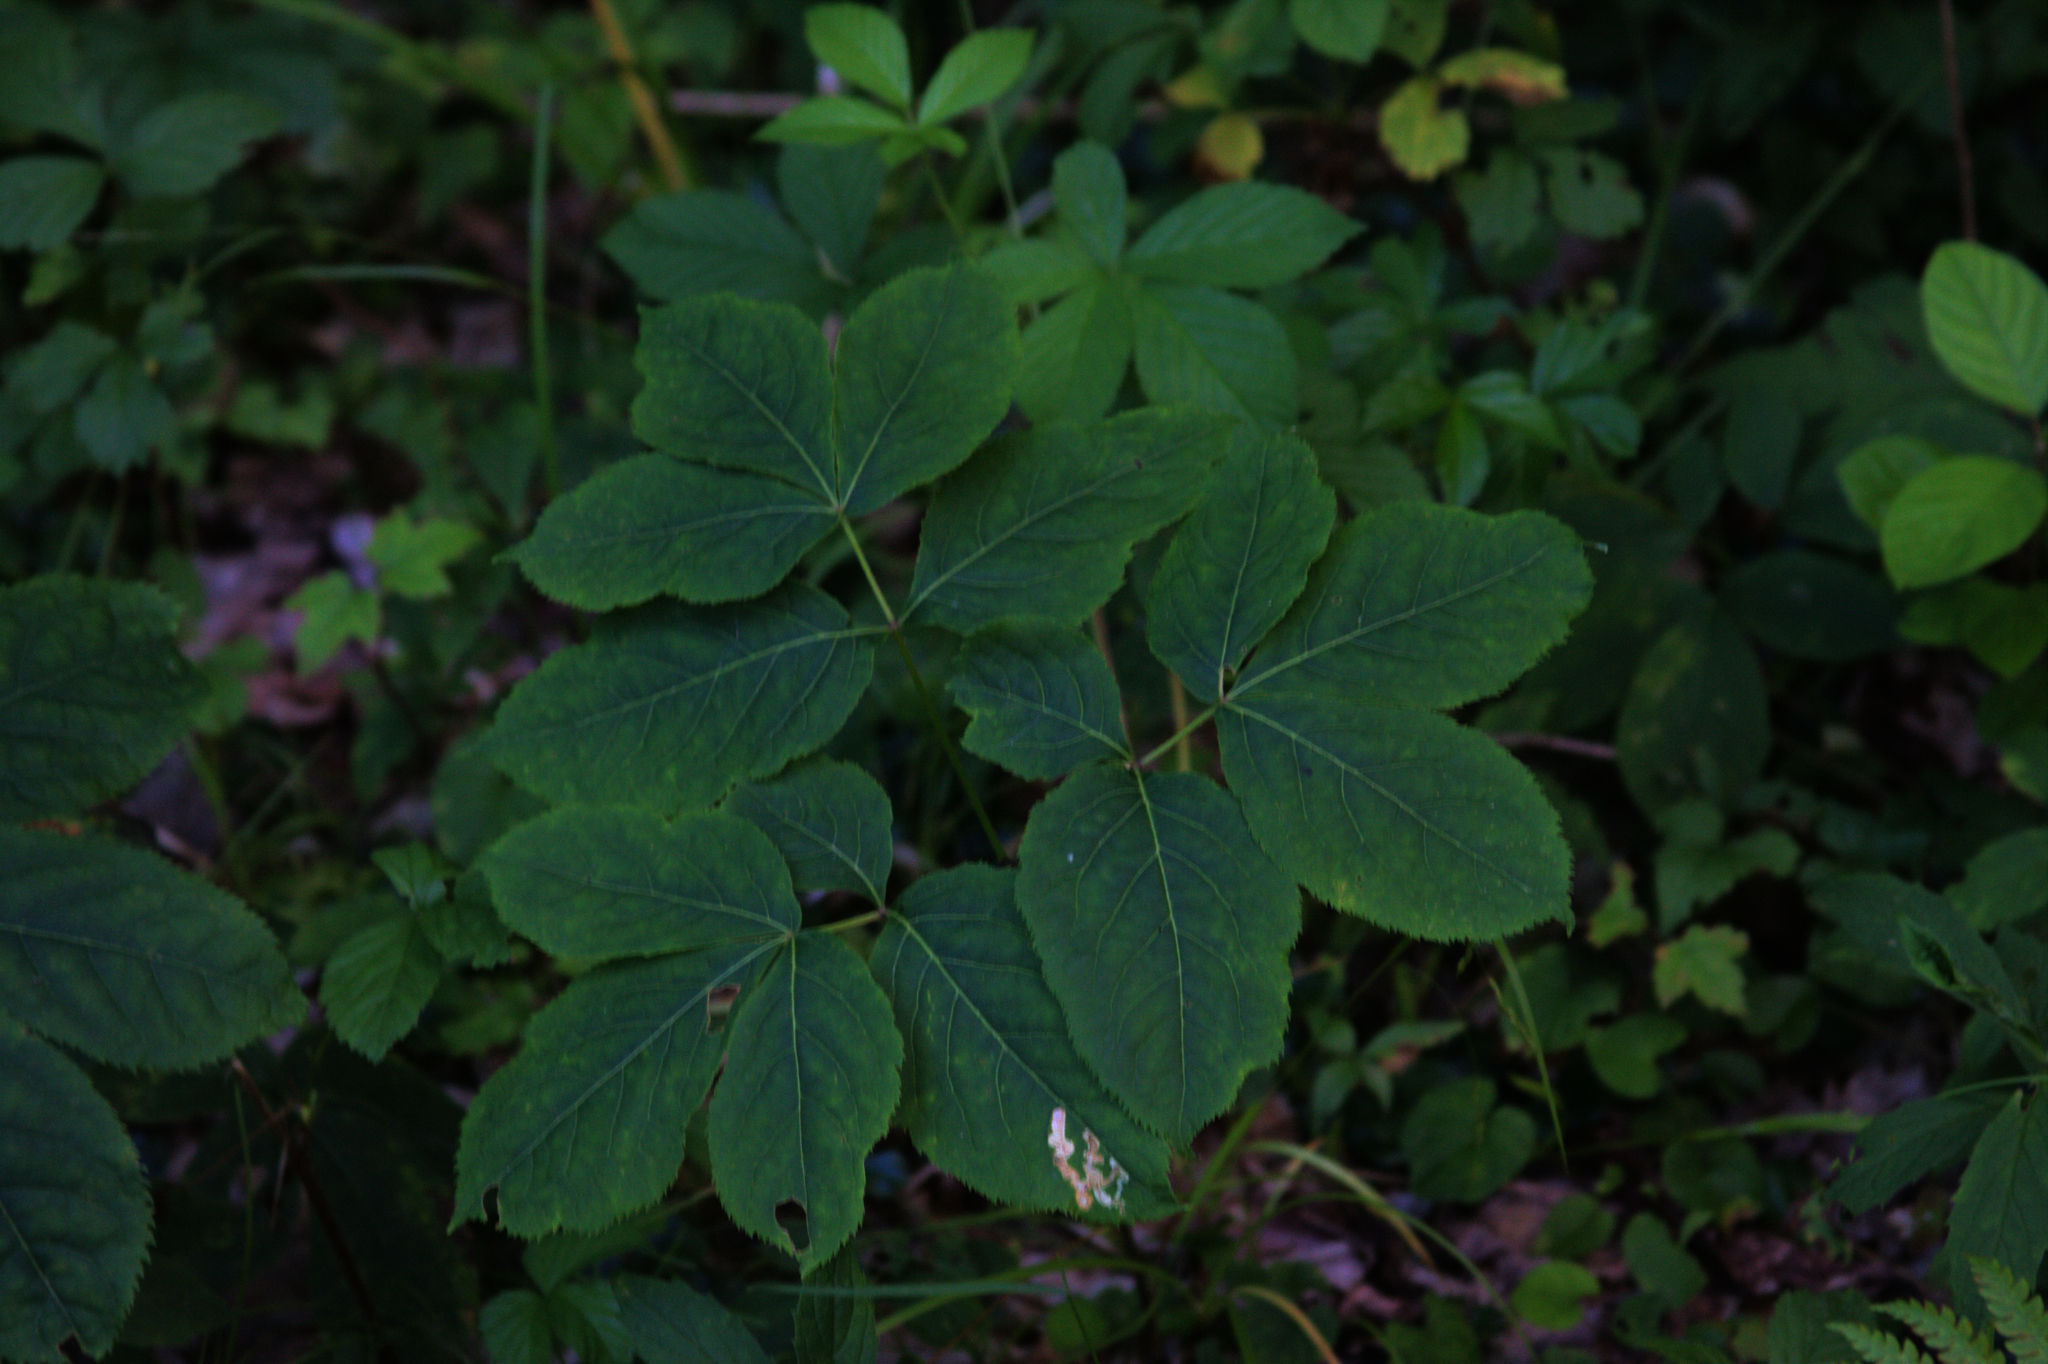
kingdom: Plantae
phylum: Tracheophyta
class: Magnoliopsida
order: Apiales
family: Araliaceae
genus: Aralia
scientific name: Aralia nudicaulis
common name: Wild sarsaparilla
